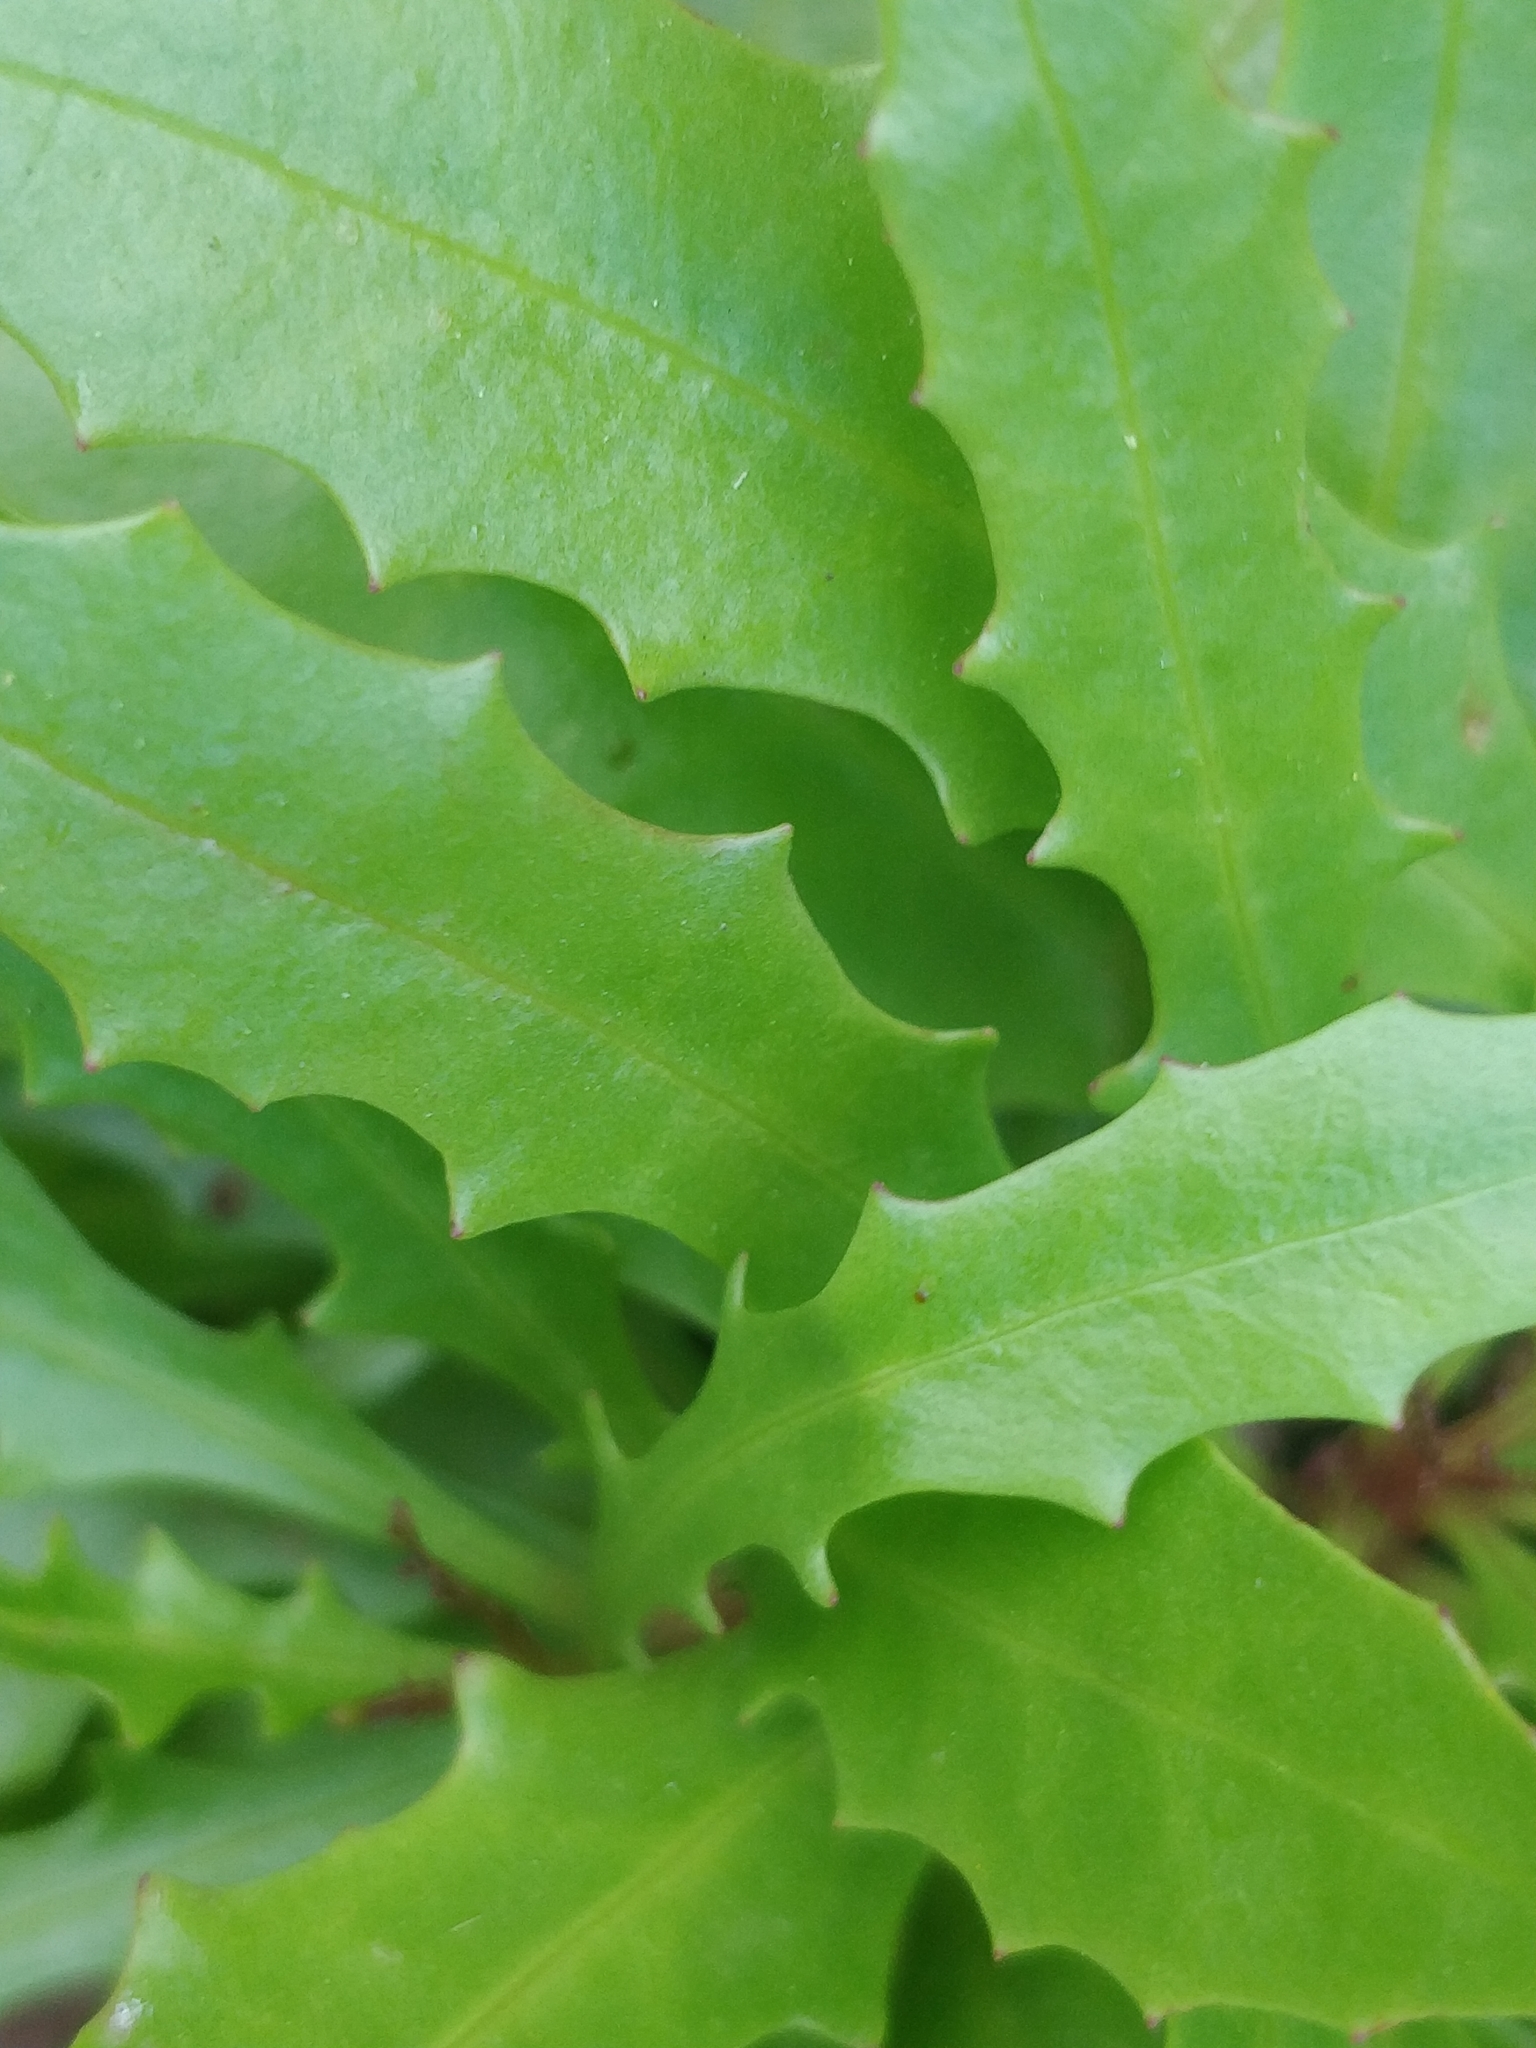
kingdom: Plantae
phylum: Tracheophyta
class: Magnoliopsida
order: Asterales
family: Asteraceae
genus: Tolpis
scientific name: Tolpis succulenta
